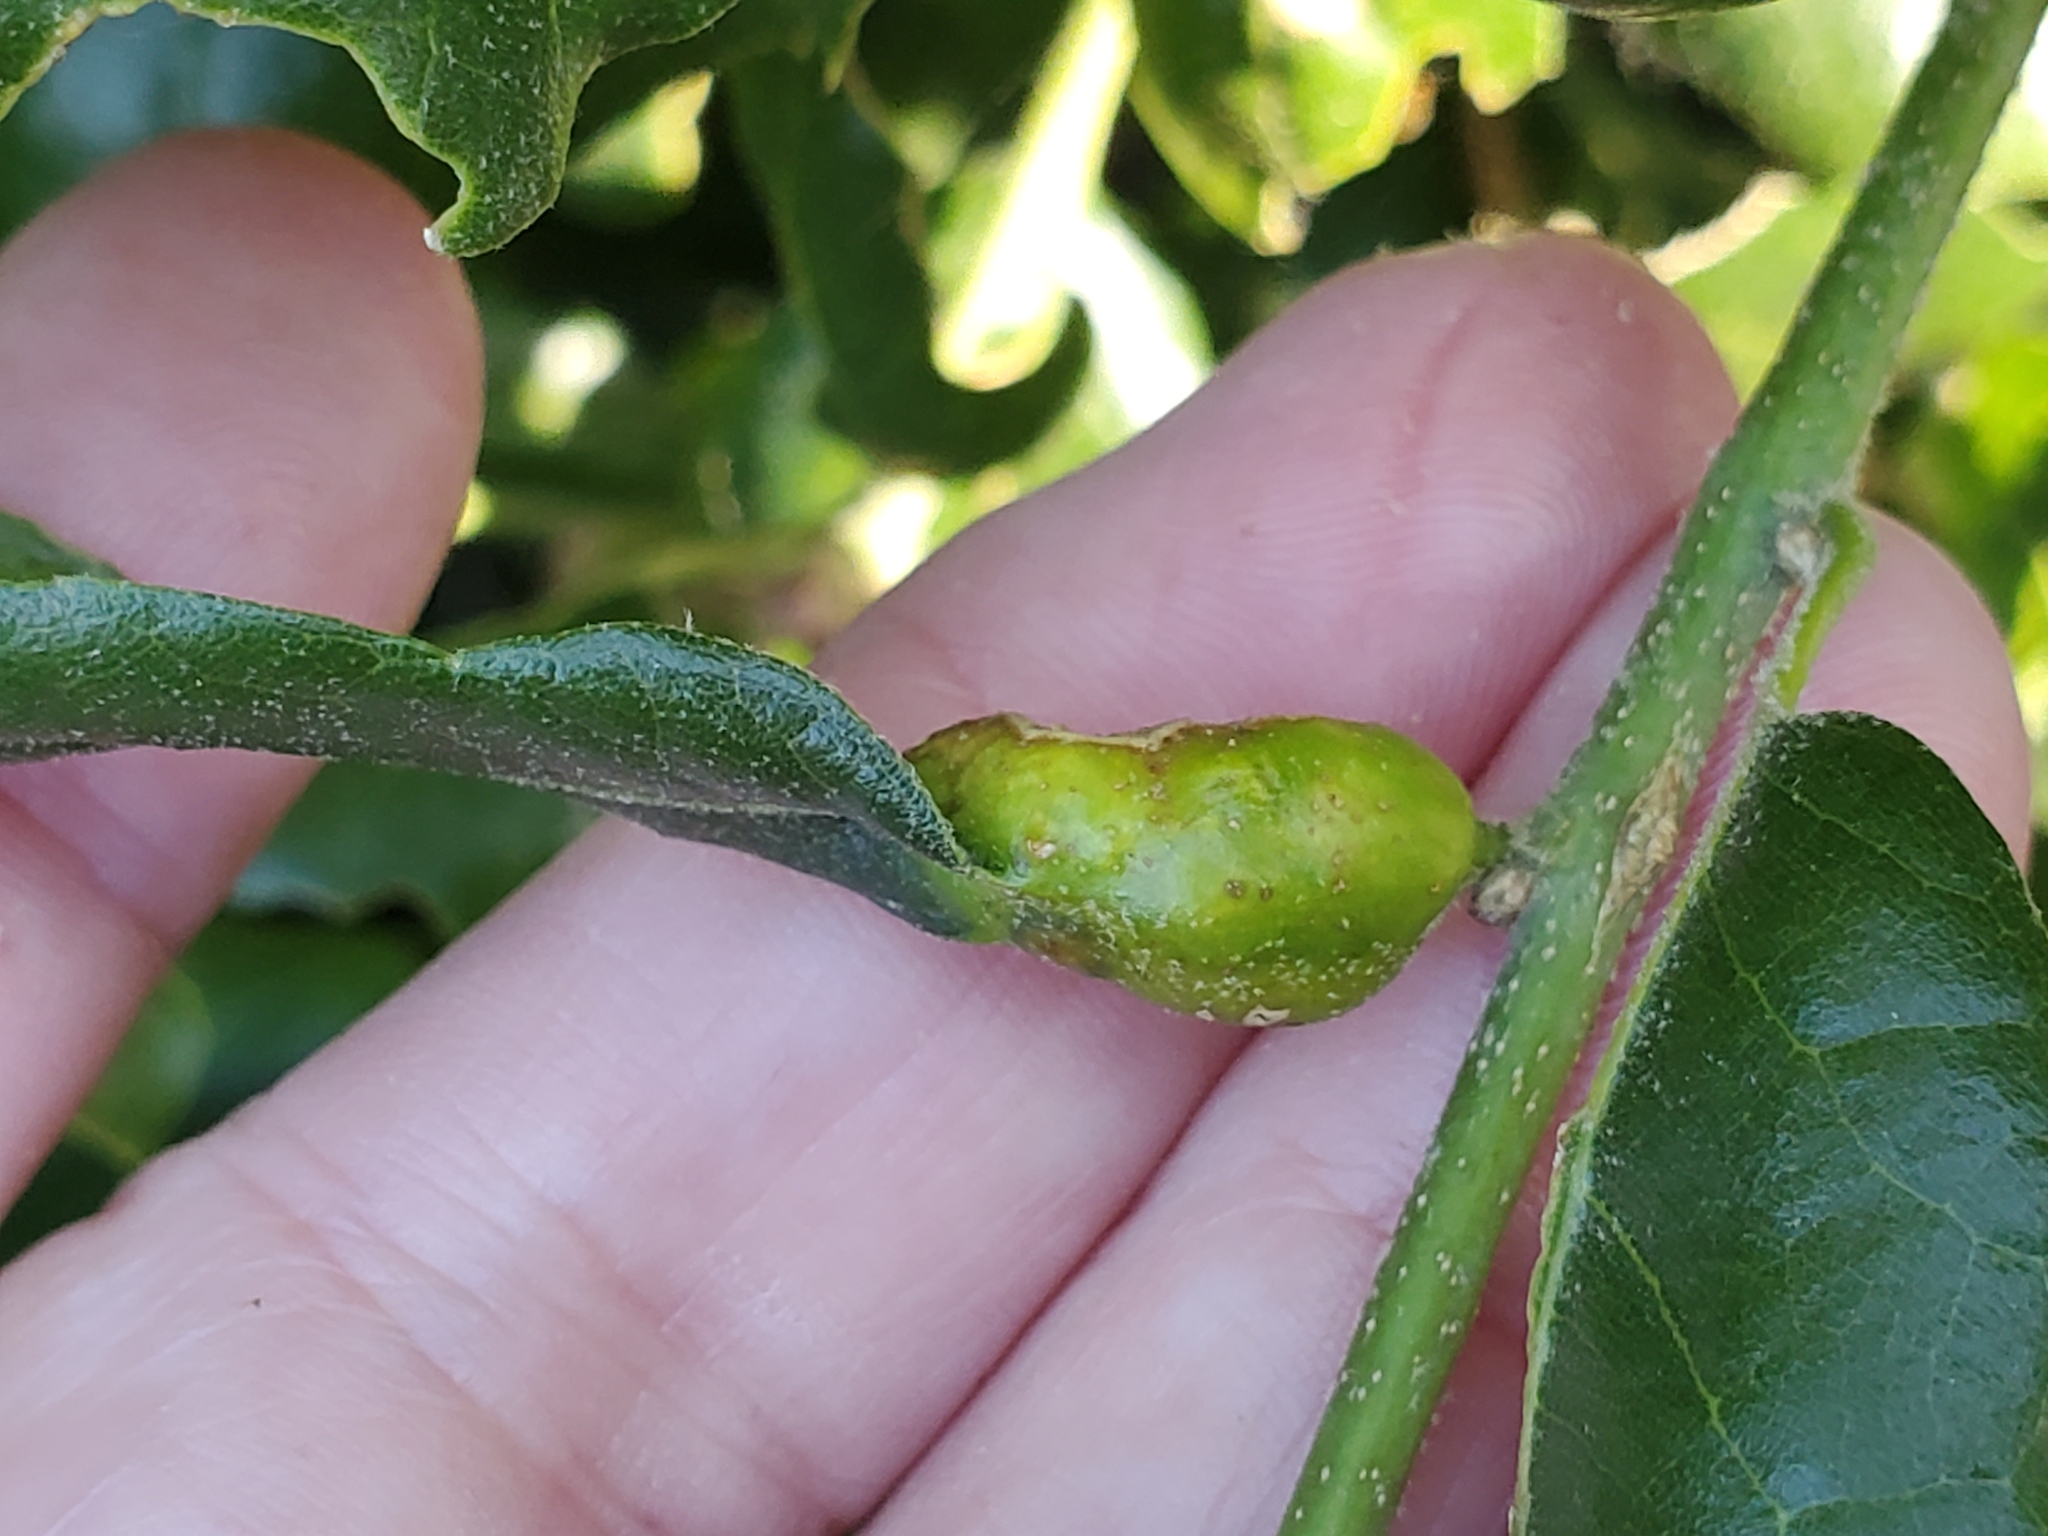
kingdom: Animalia
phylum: Arthropoda
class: Insecta
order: Hymenoptera
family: Cynipidae
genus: Melikaiella
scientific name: Melikaiella
